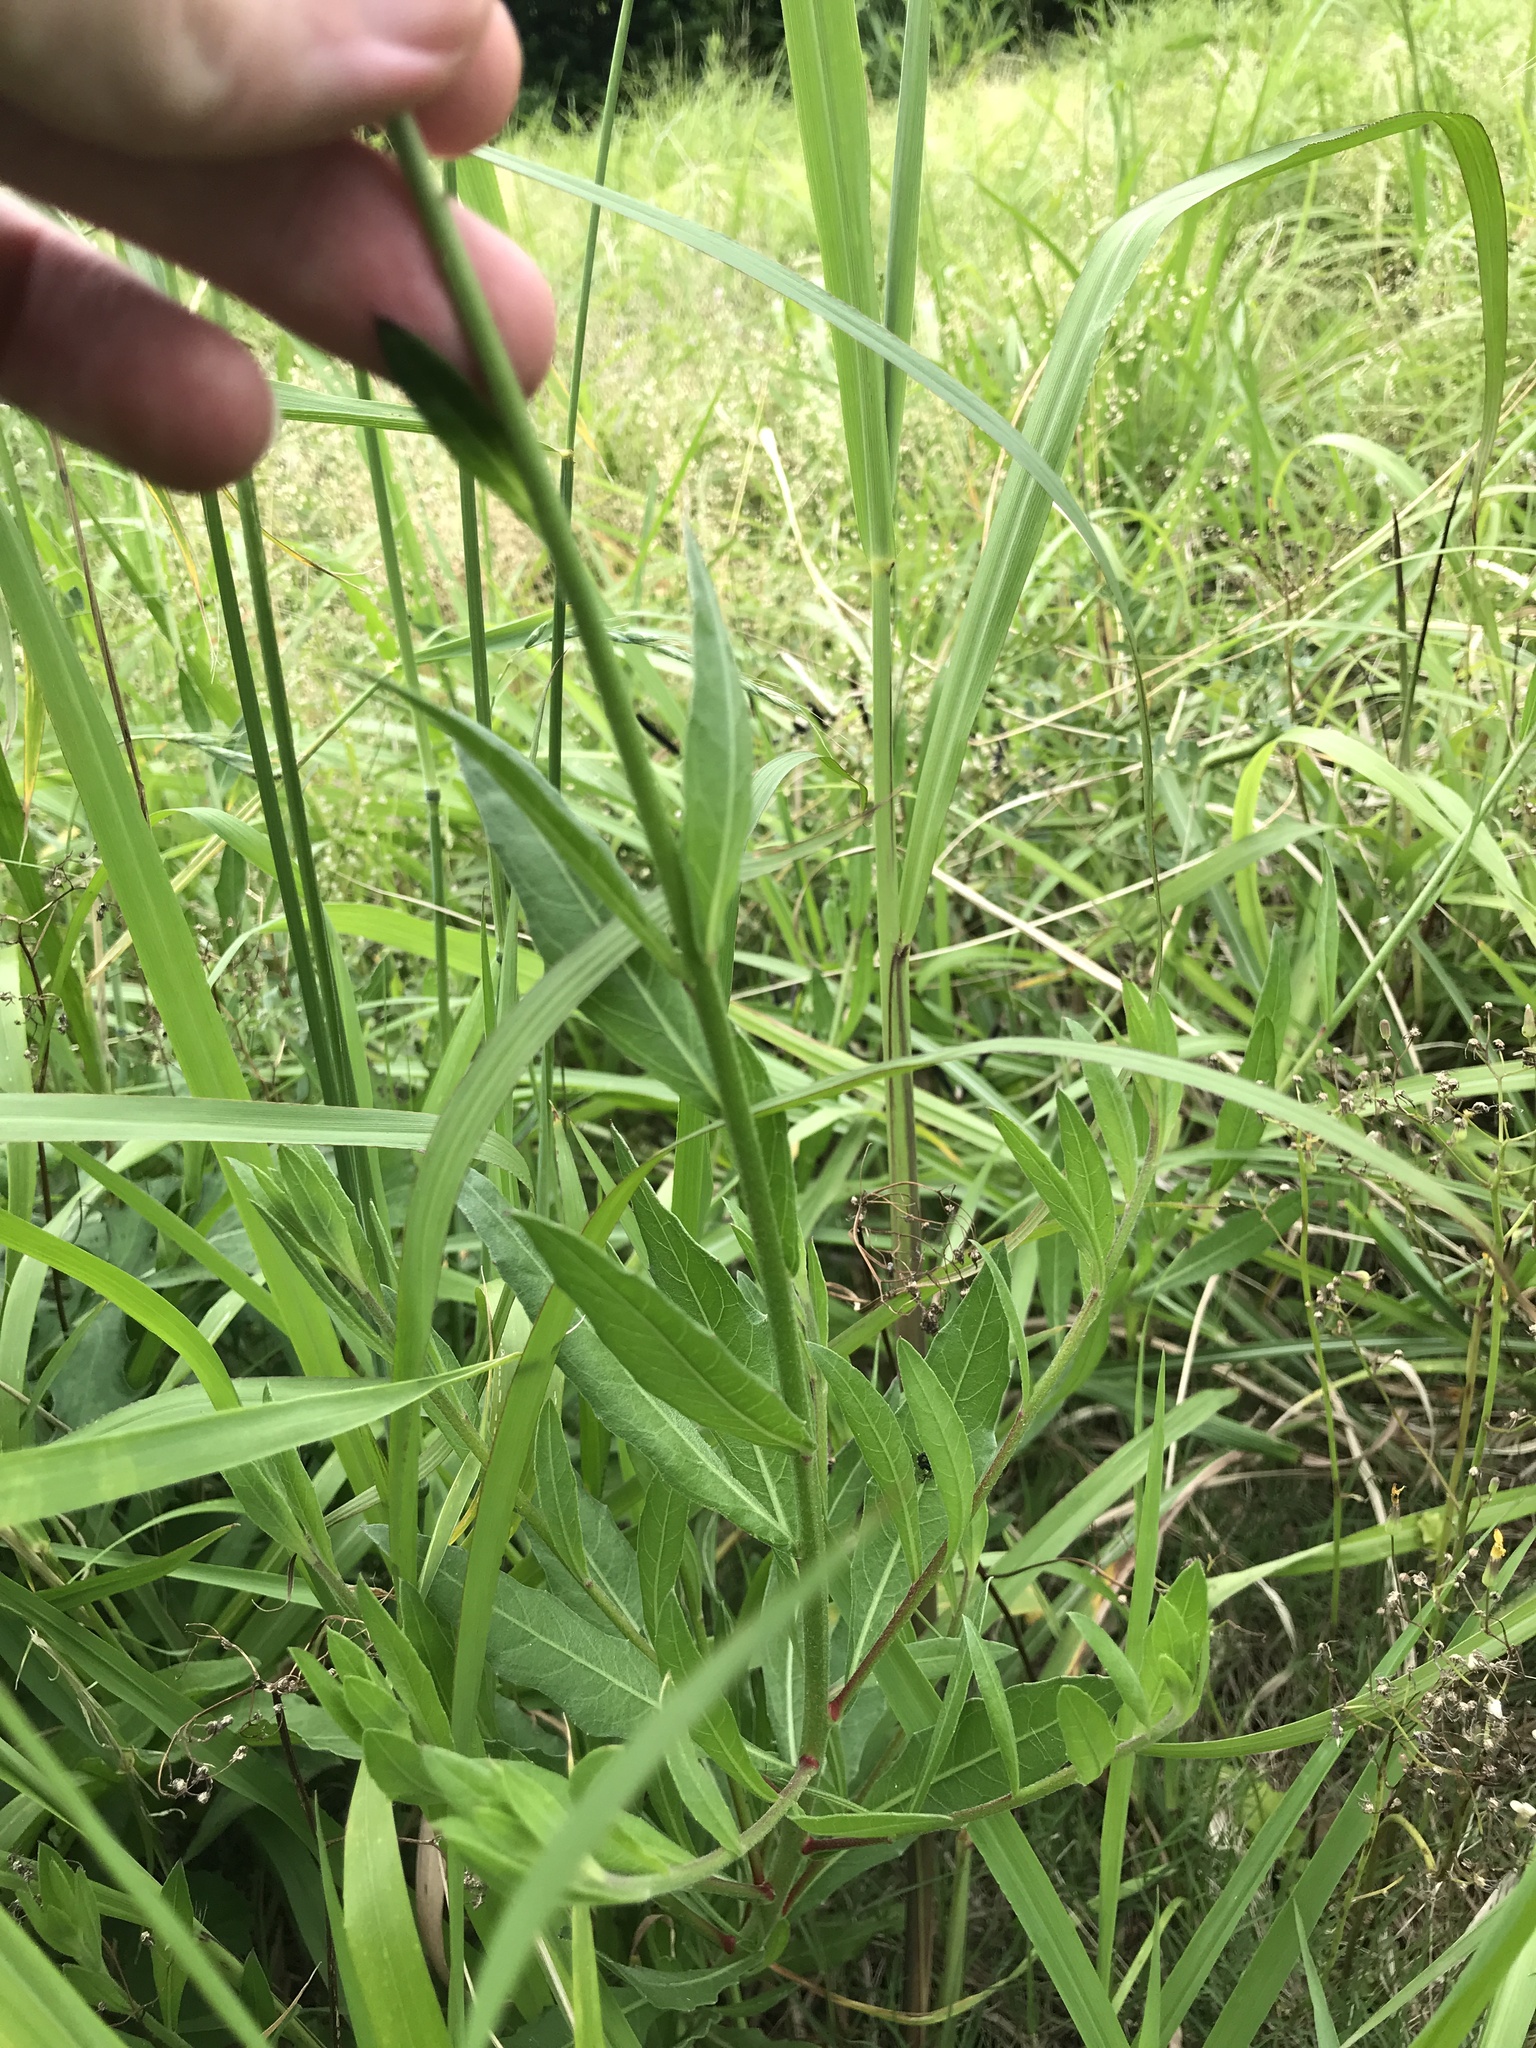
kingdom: Plantae
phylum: Tracheophyta
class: Magnoliopsida
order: Myrtales
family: Onagraceae
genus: Oenothera
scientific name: Oenothera lindheimeri
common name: Lindheimer's beeblossom
